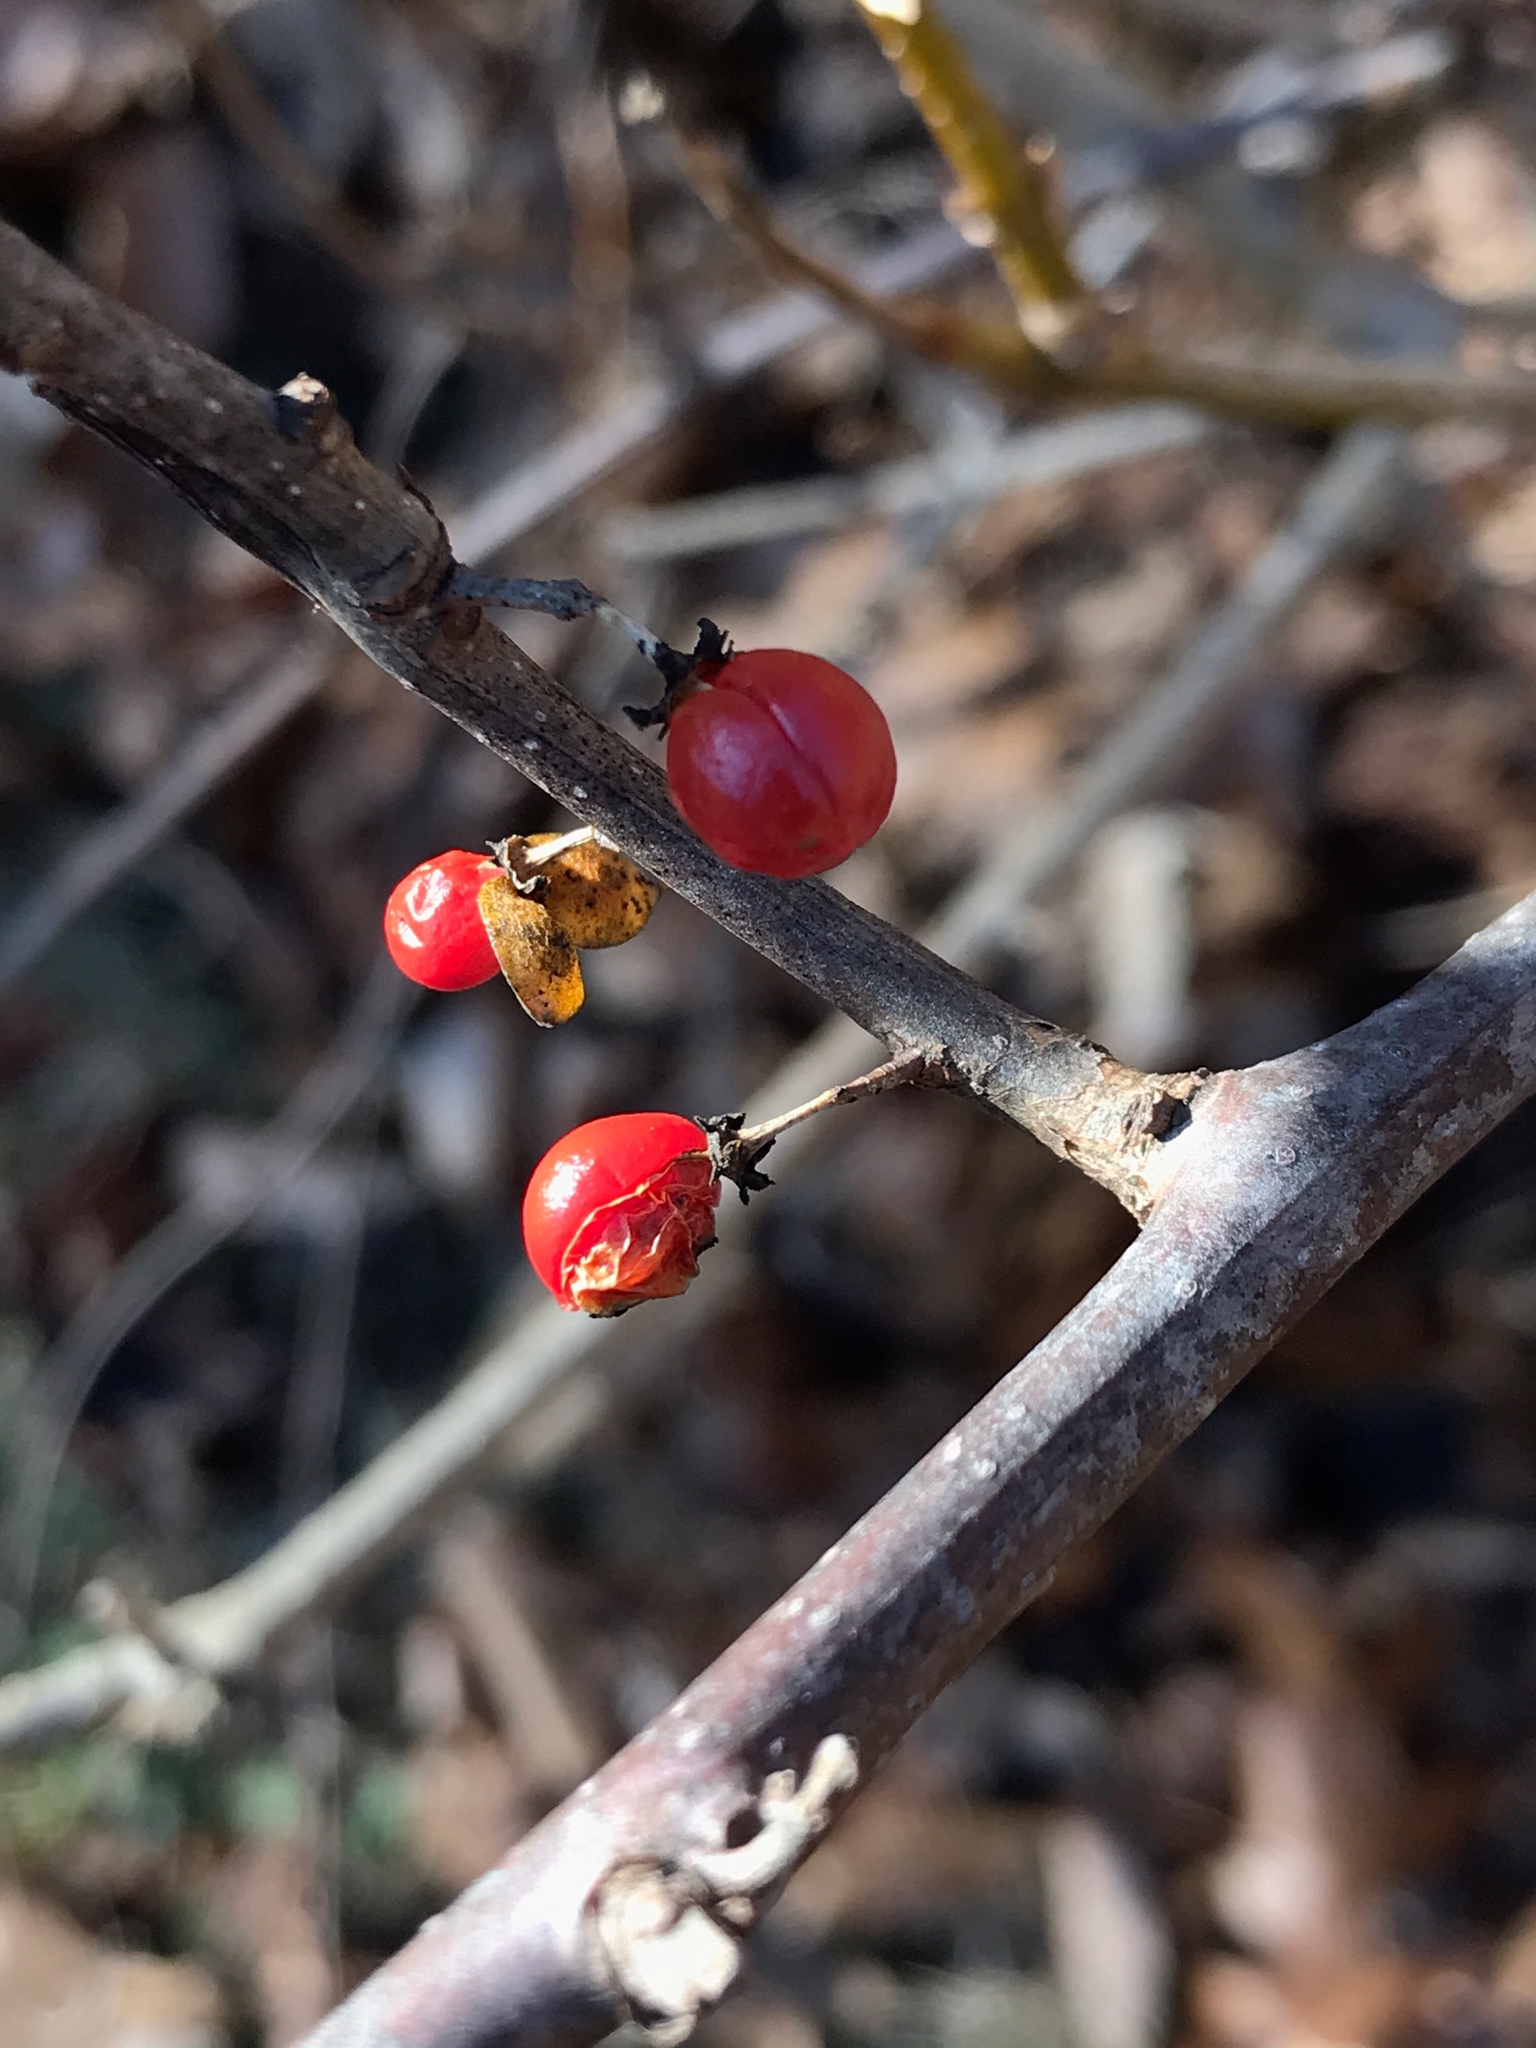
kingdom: Plantae
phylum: Tracheophyta
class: Magnoliopsida
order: Celastrales
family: Celastraceae
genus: Celastrus
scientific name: Celastrus orbiculatus
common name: Oriental bittersweet
